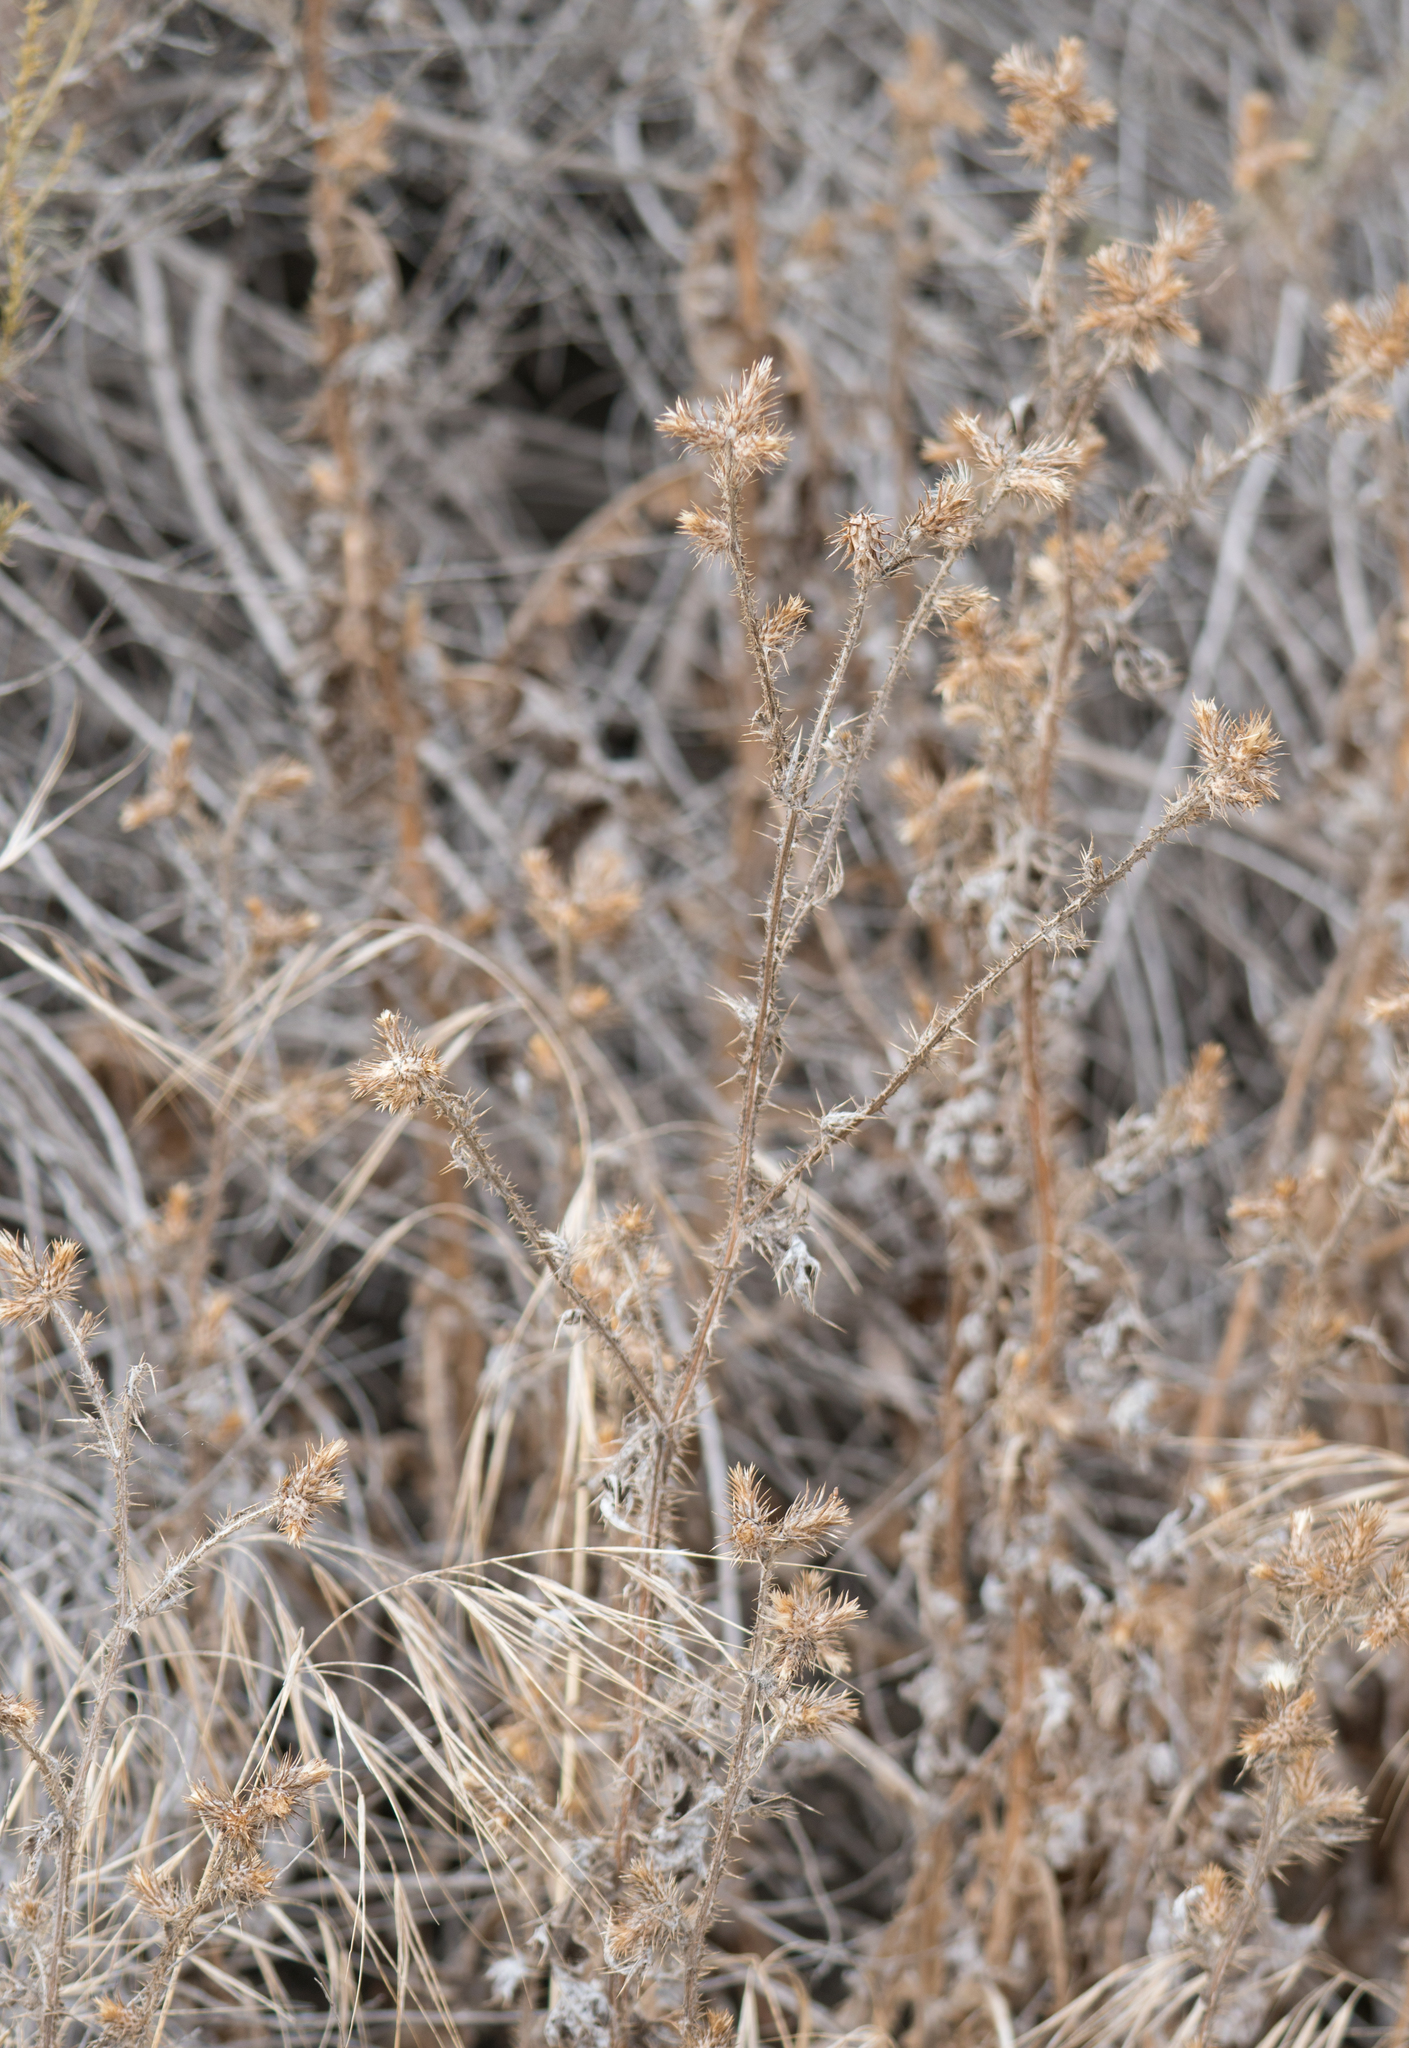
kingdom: Plantae
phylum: Tracheophyta
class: Magnoliopsida
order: Asterales
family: Asteraceae
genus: Carduus
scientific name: Carduus pycnocephalus
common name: Plymouth thistle
